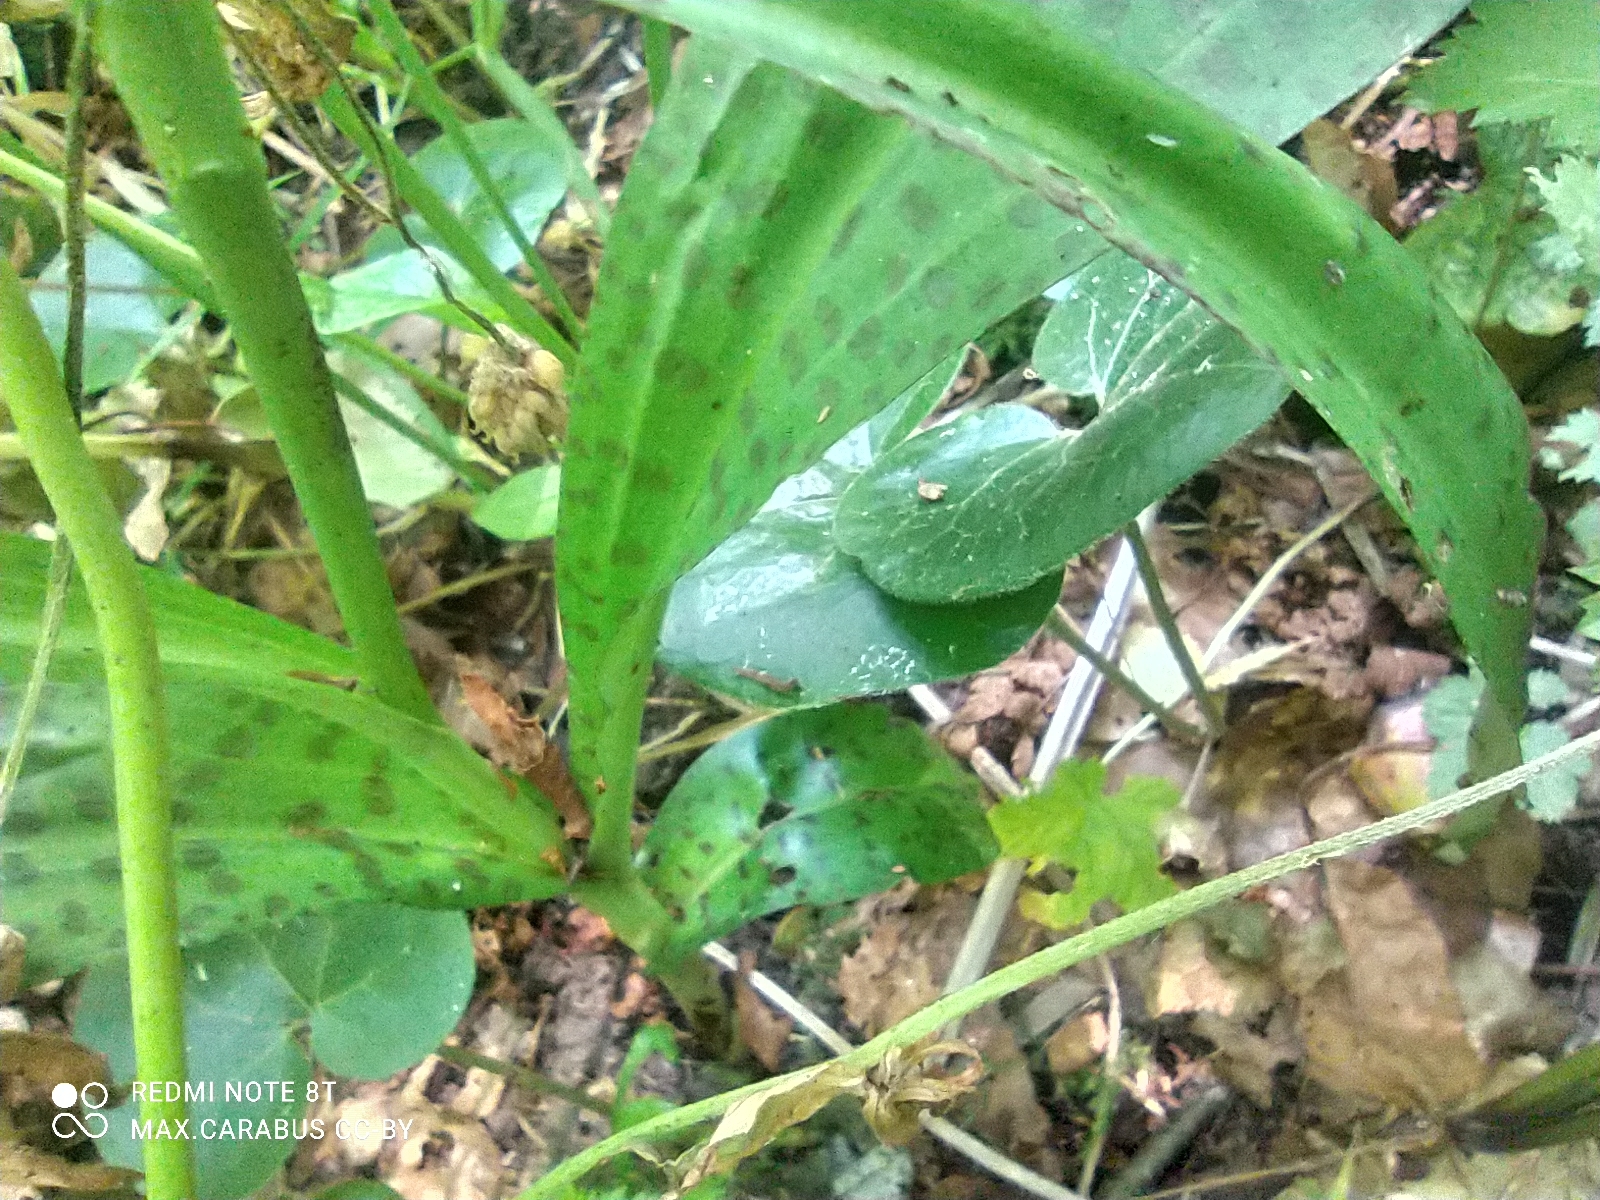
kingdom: Plantae
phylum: Tracheophyta
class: Liliopsida
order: Asparagales
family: Orchidaceae
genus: Dactylorhiza
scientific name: Dactylorhiza maculata
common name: Heath spotted-orchid
